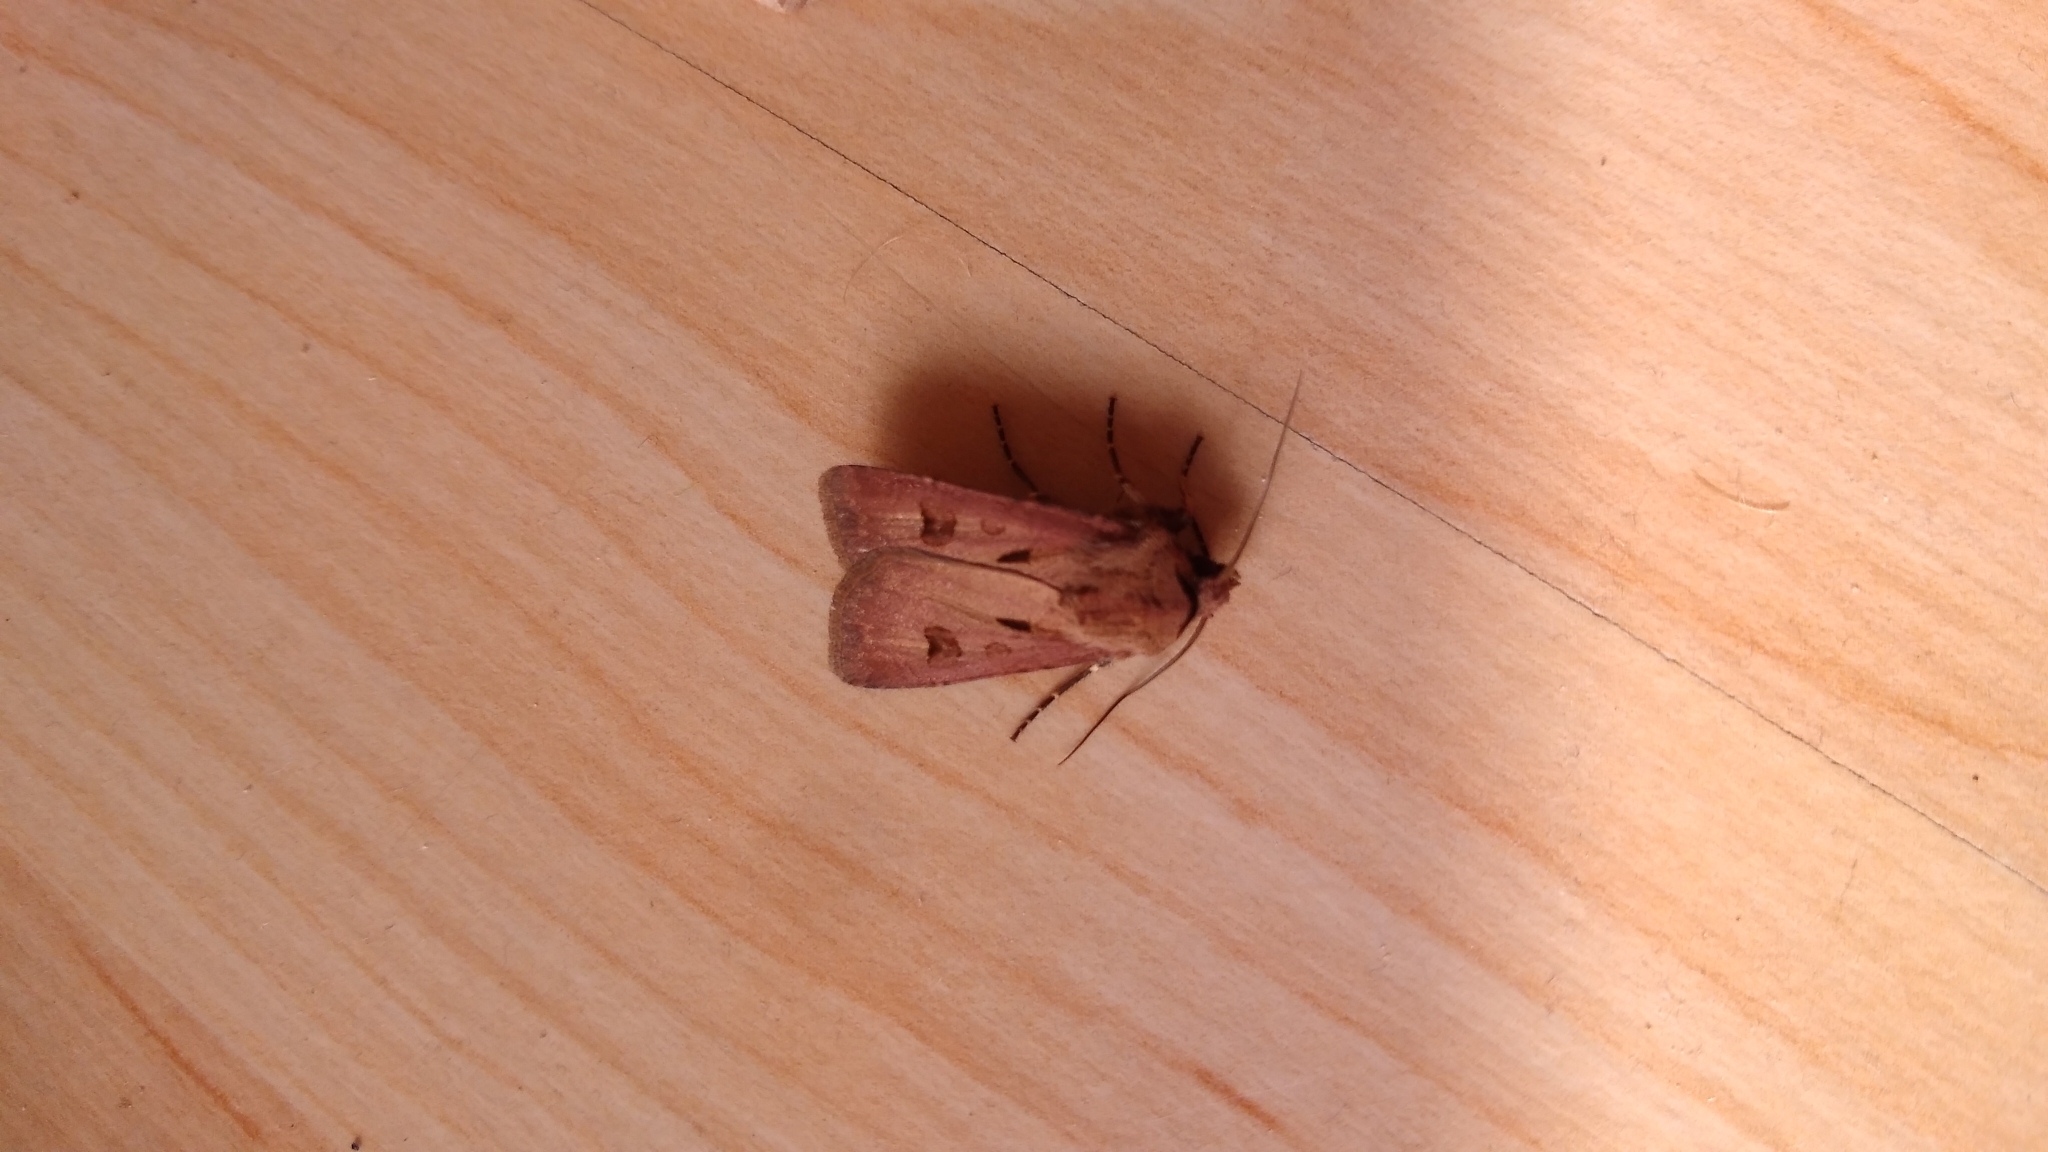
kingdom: Animalia
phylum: Arthropoda
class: Insecta
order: Lepidoptera
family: Noctuidae
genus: Agrotis
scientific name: Agrotis exclamationis
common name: Heart and dart
